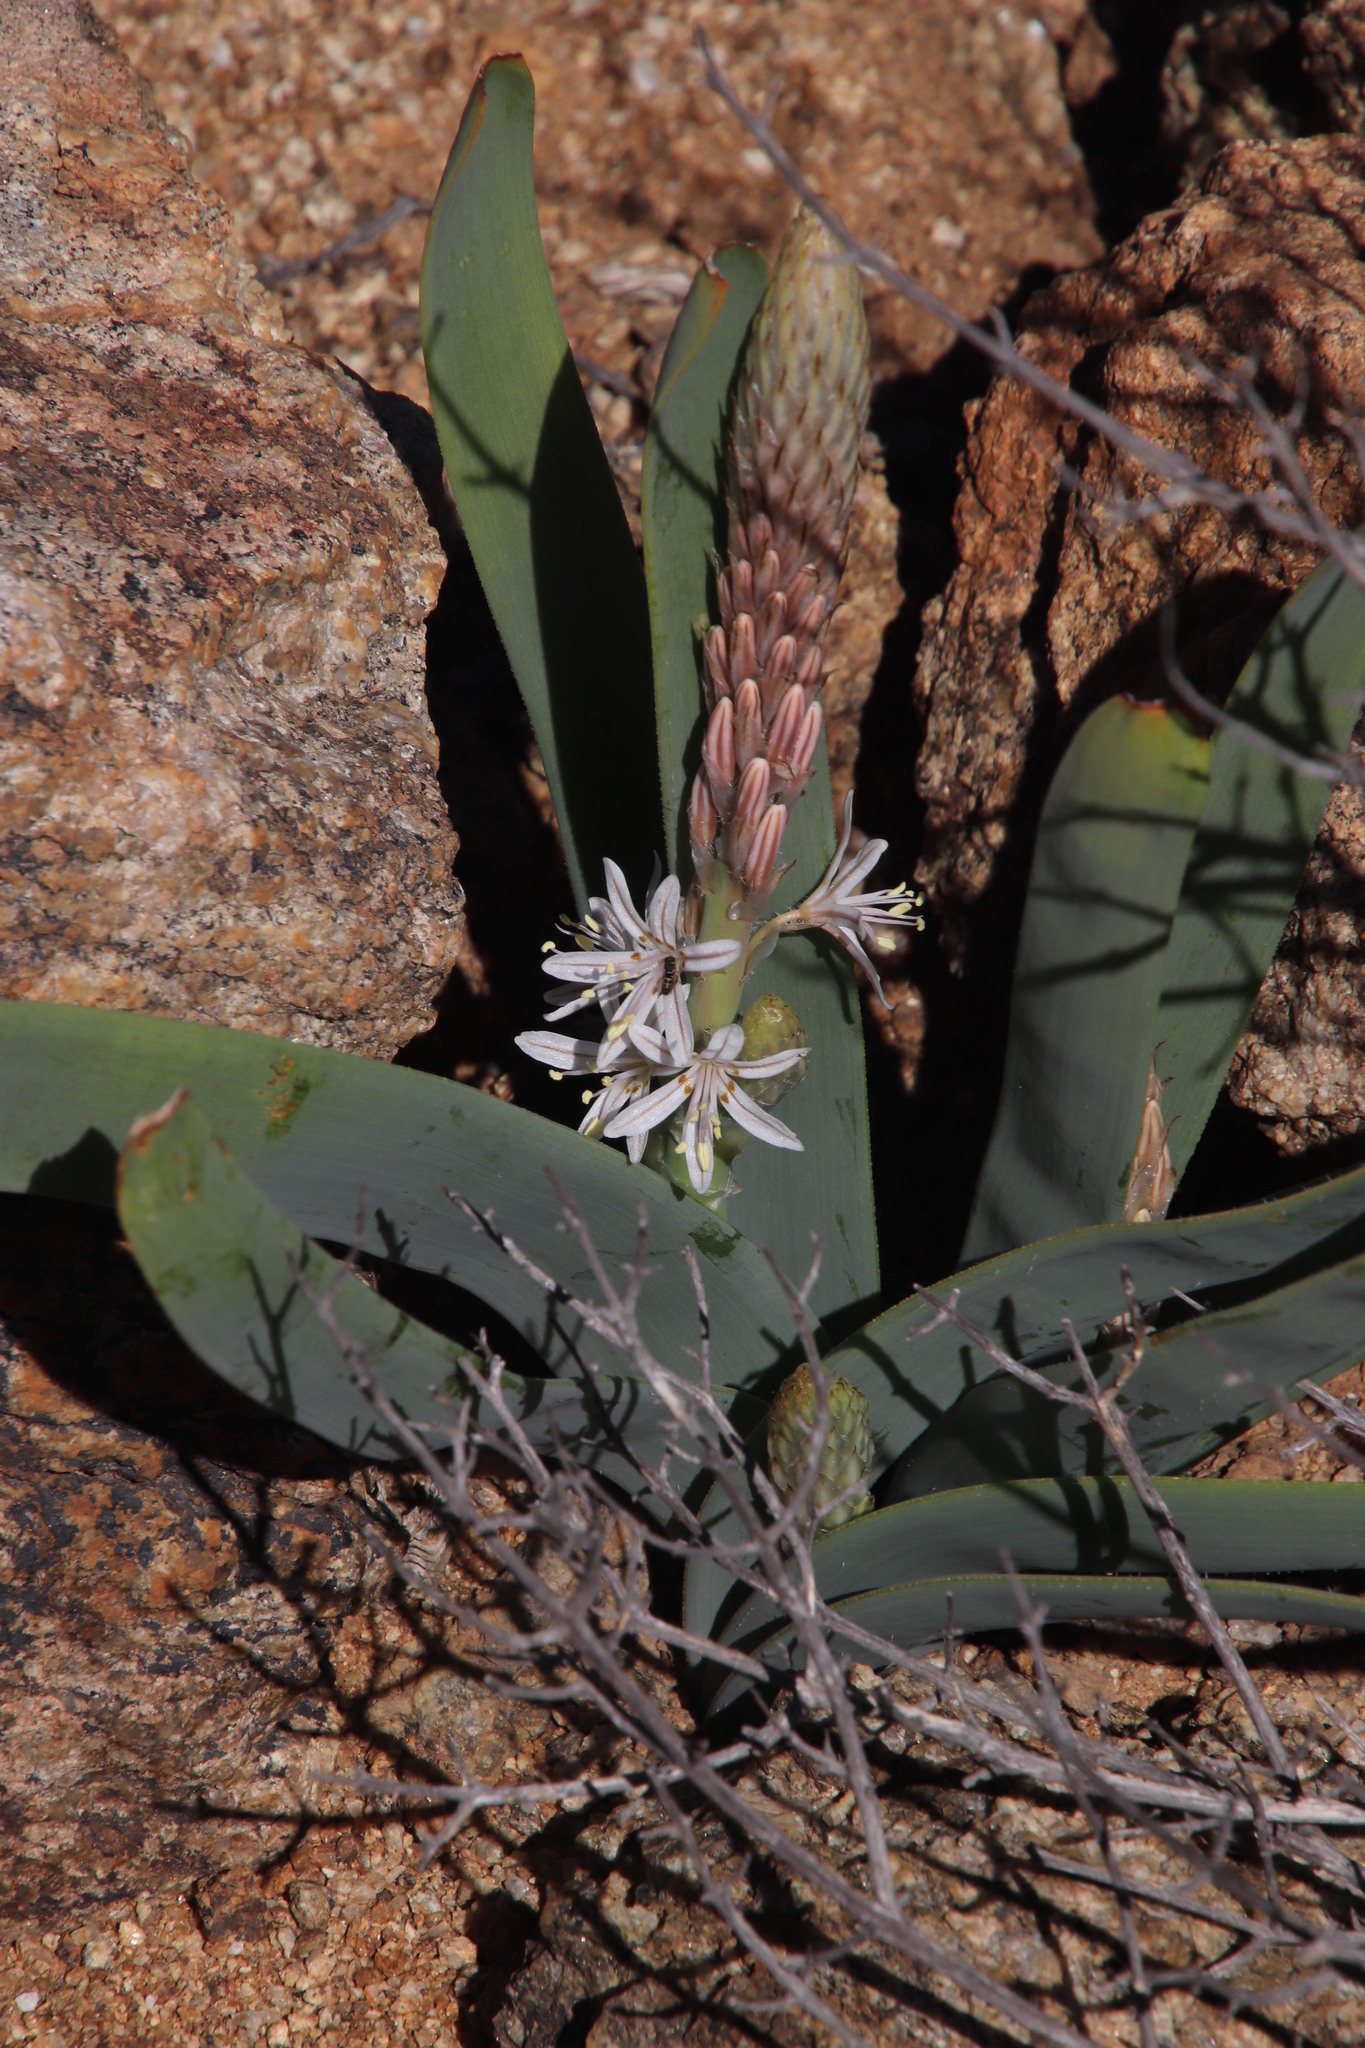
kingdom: Plantae
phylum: Tracheophyta
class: Liliopsida
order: Asparagales
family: Asphodelaceae
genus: Trachyandra
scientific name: Trachyandra falcata
